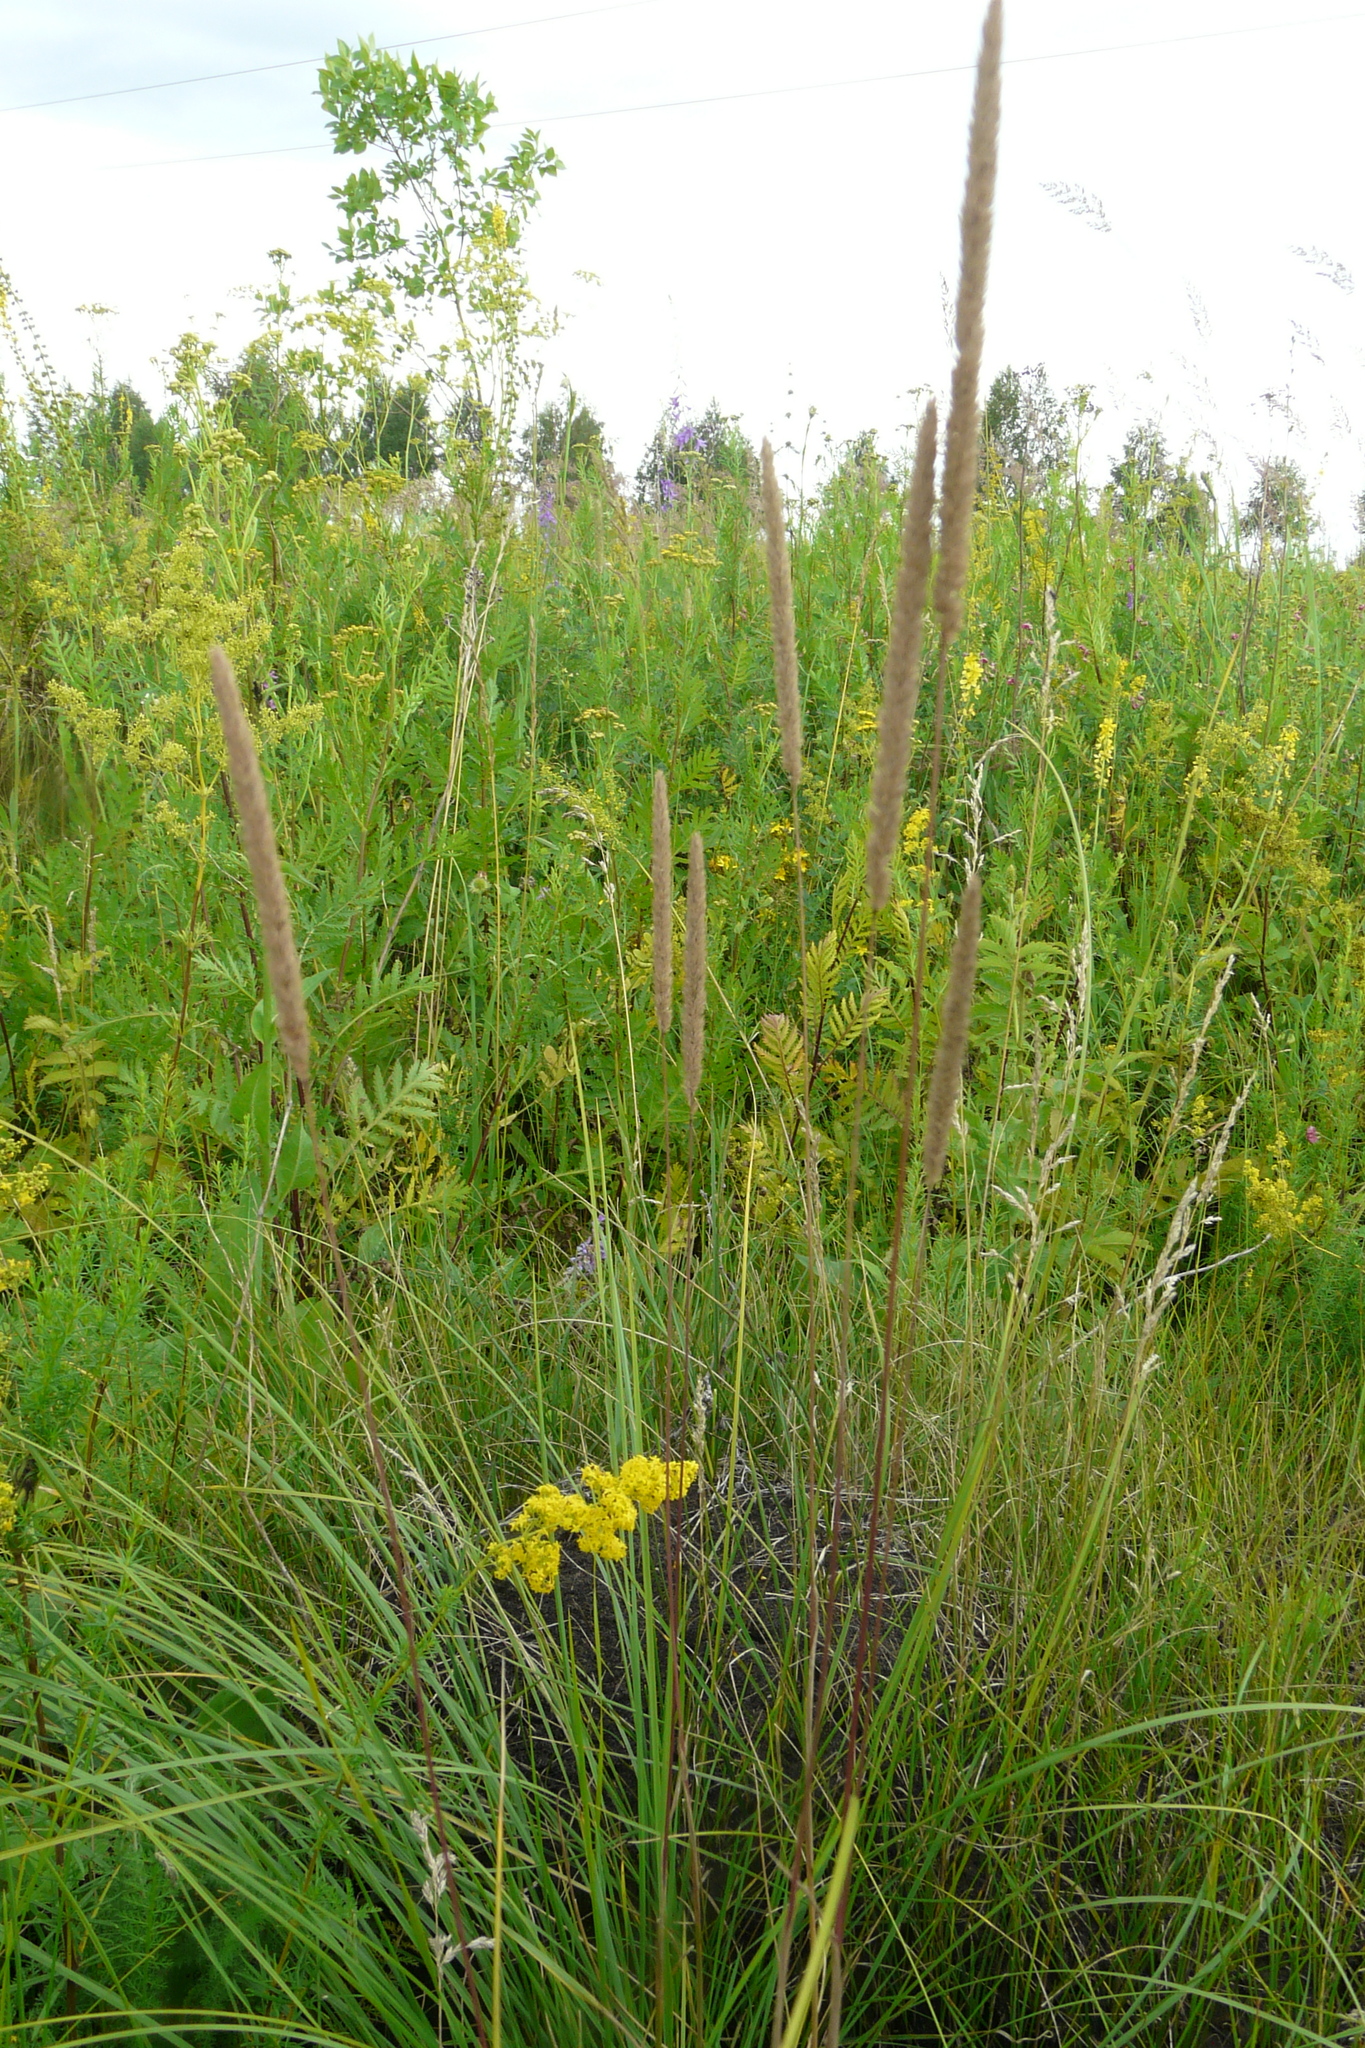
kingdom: Plantae
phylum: Tracheophyta
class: Liliopsida
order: Poales
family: Poaceae
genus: Phleum
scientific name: Phleum phleoides
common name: Purple-stem cat's-tail
